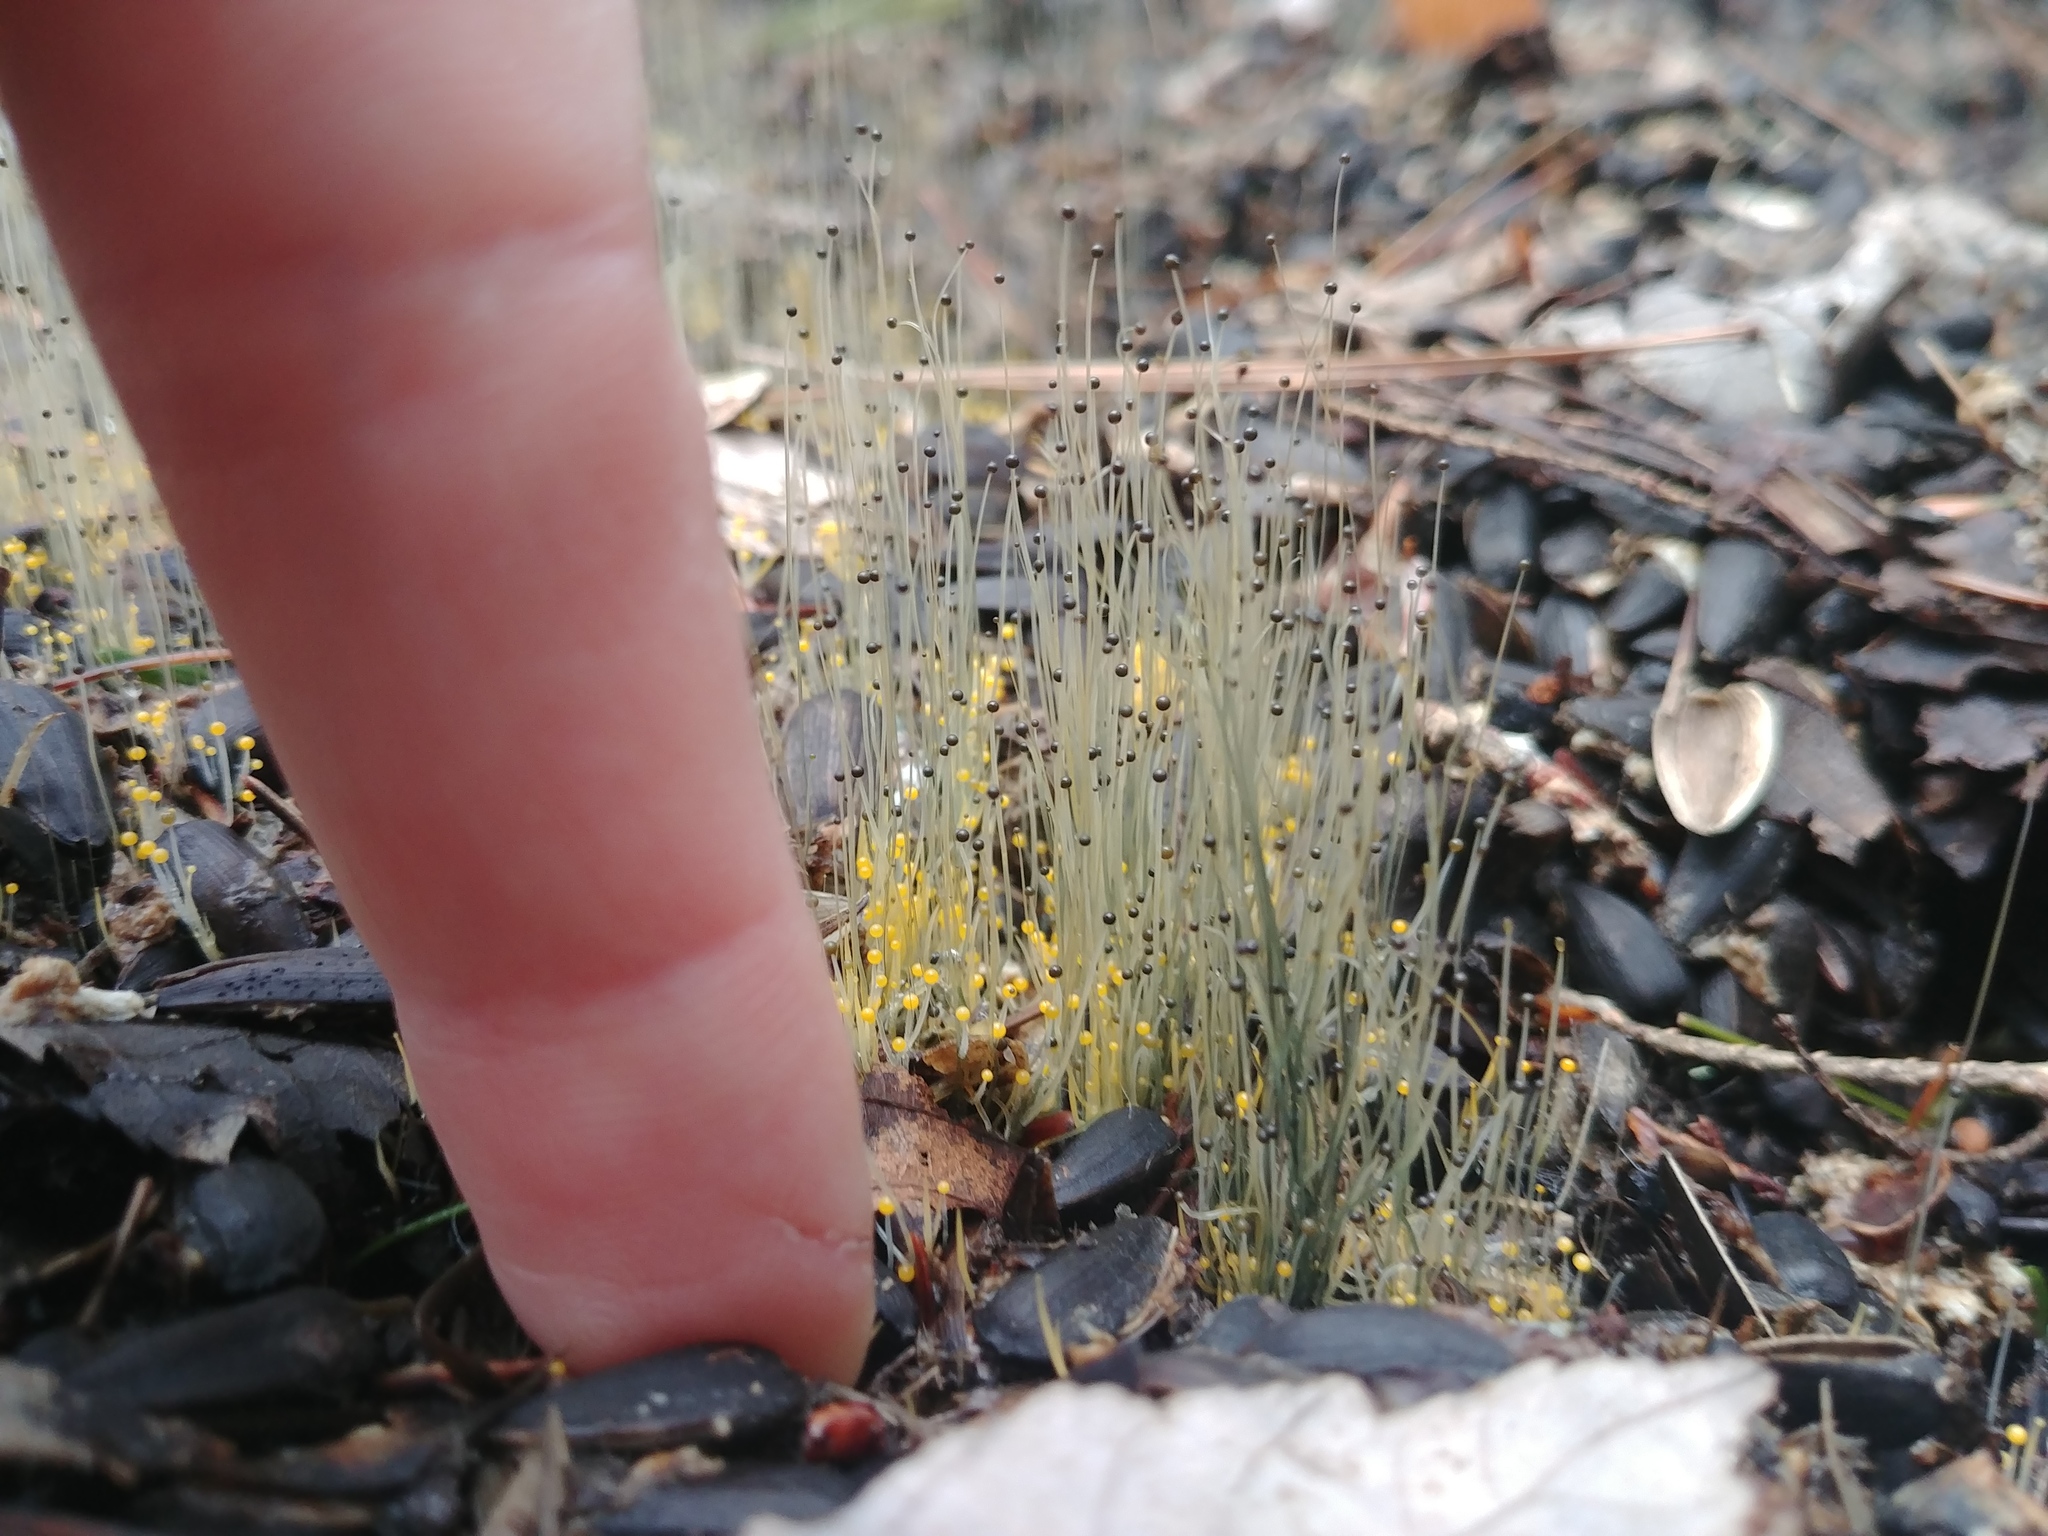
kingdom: Fungi
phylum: Mucoromycota
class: Mucoromycetes
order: Mucorales
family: Phycomycetaceae
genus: Phycomyces
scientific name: Phycomyces
